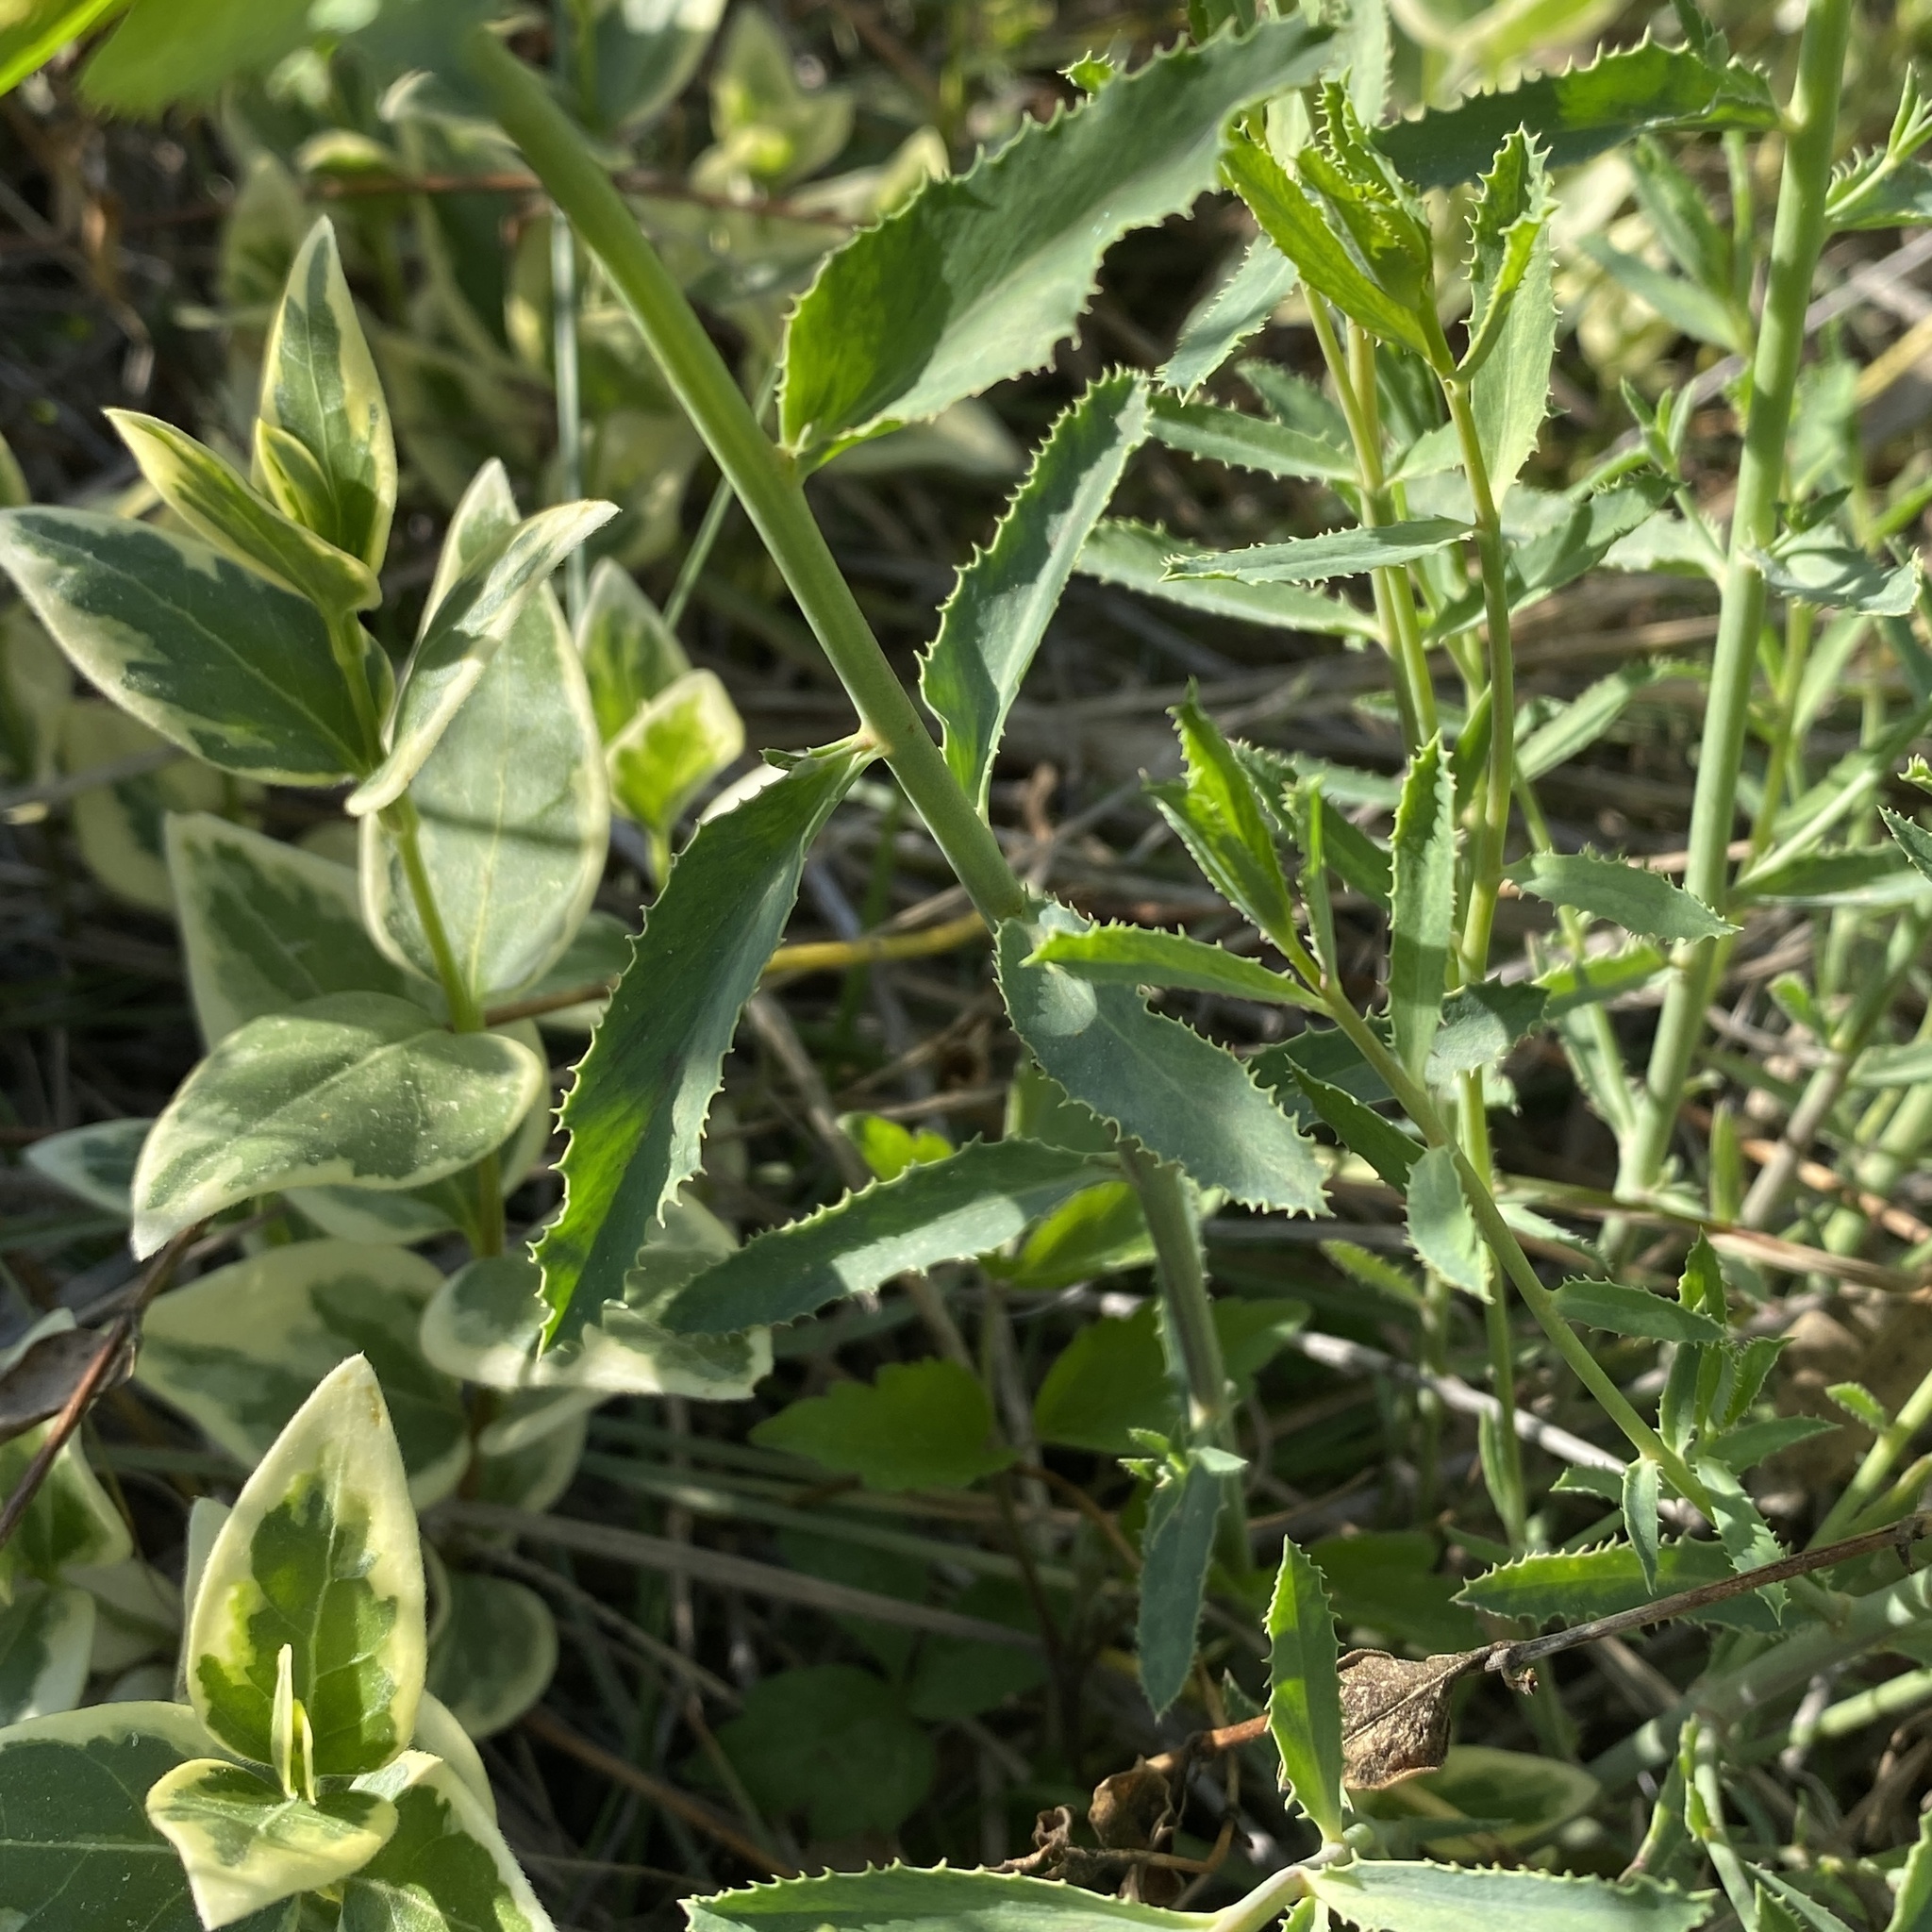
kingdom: Plantae
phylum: Tracheophyta
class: Magnoliopsida
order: Malpighiales
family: Euphorbiaceae
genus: Euphorbia
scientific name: Euphorbia serrata
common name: Serrate spurge
